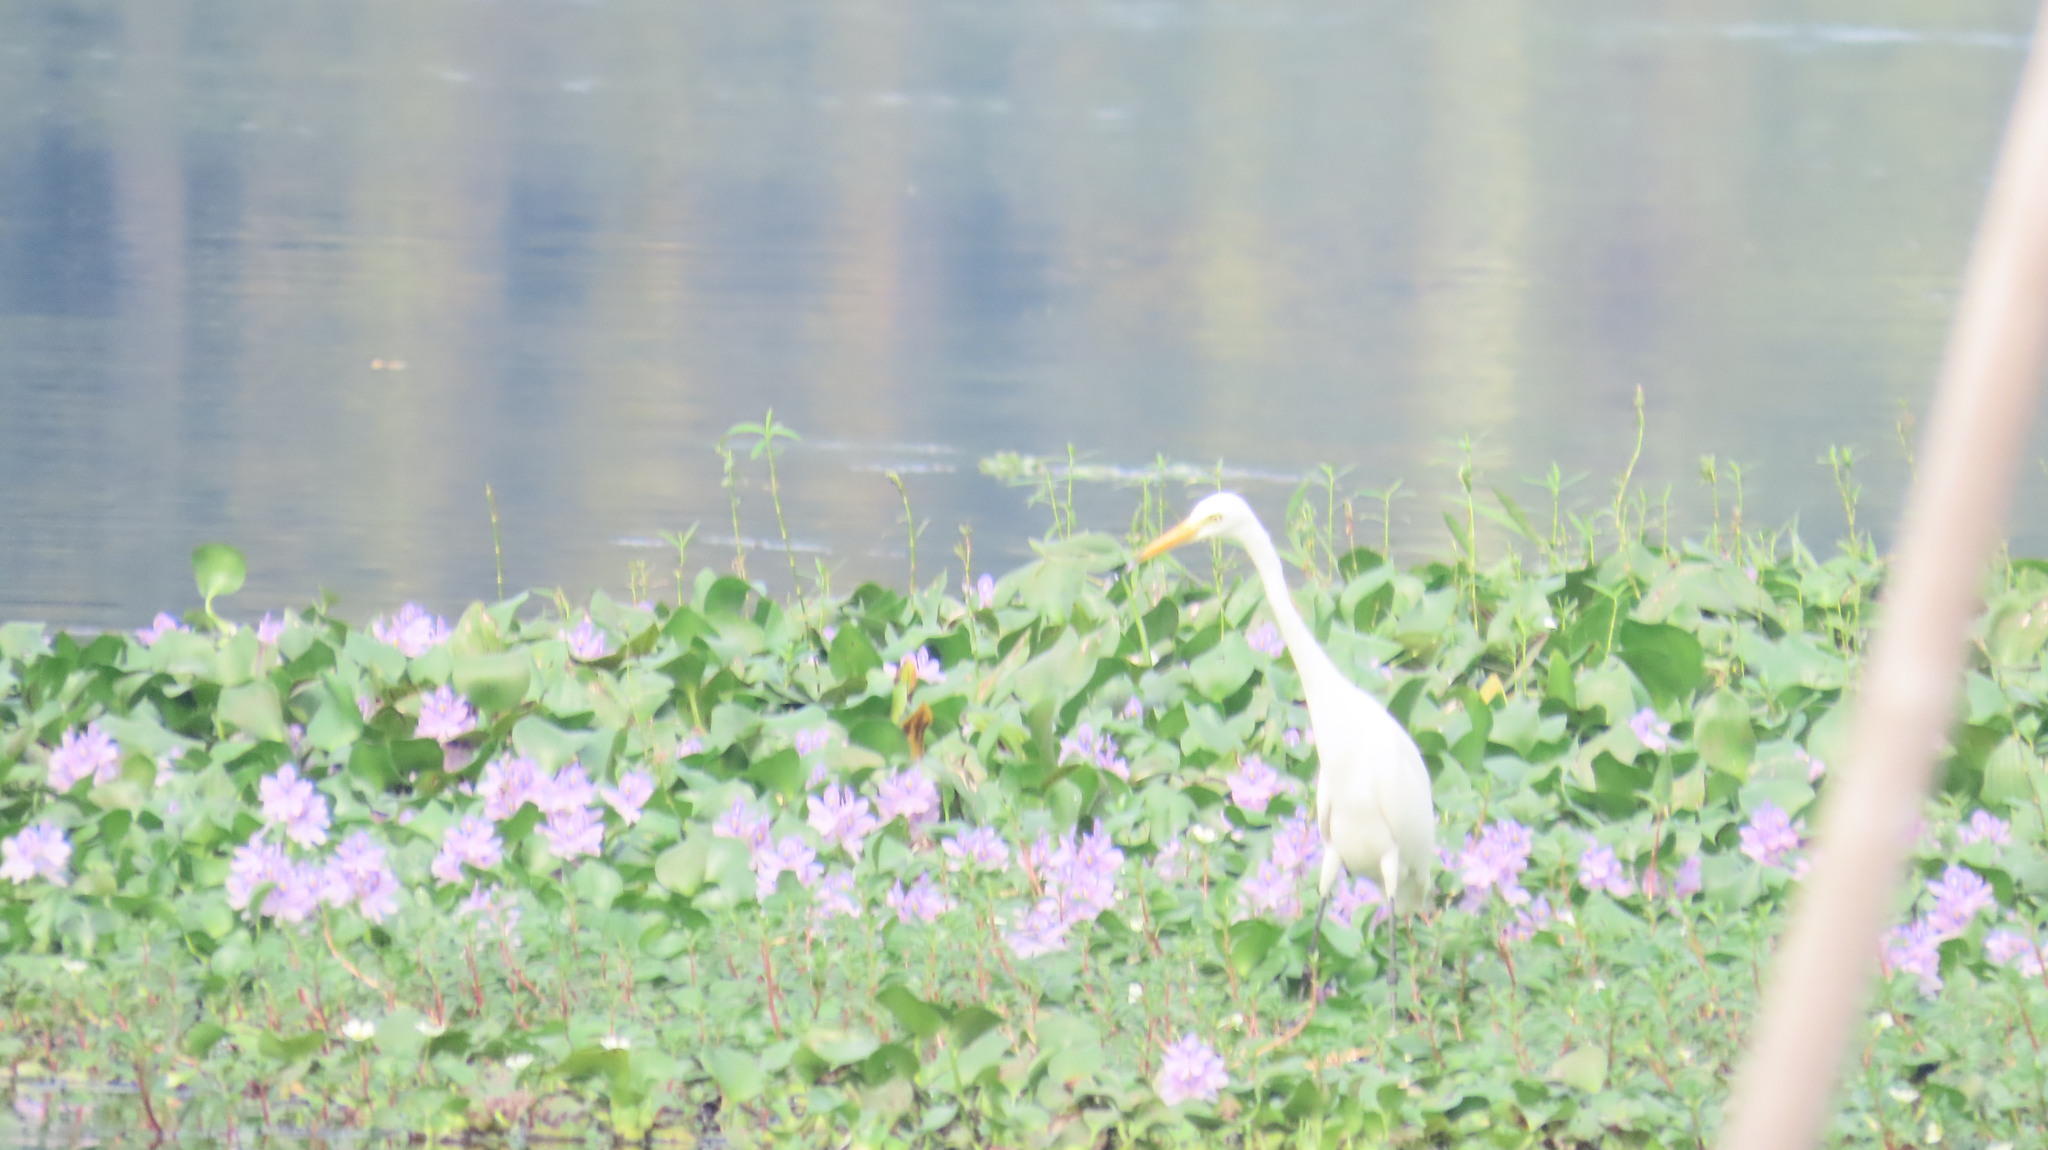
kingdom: Animalia
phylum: Chordata
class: Aves
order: Pelecaniformes
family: Ardeidae
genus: Egretta
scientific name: Egretta intermedia
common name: Intermediate egret
